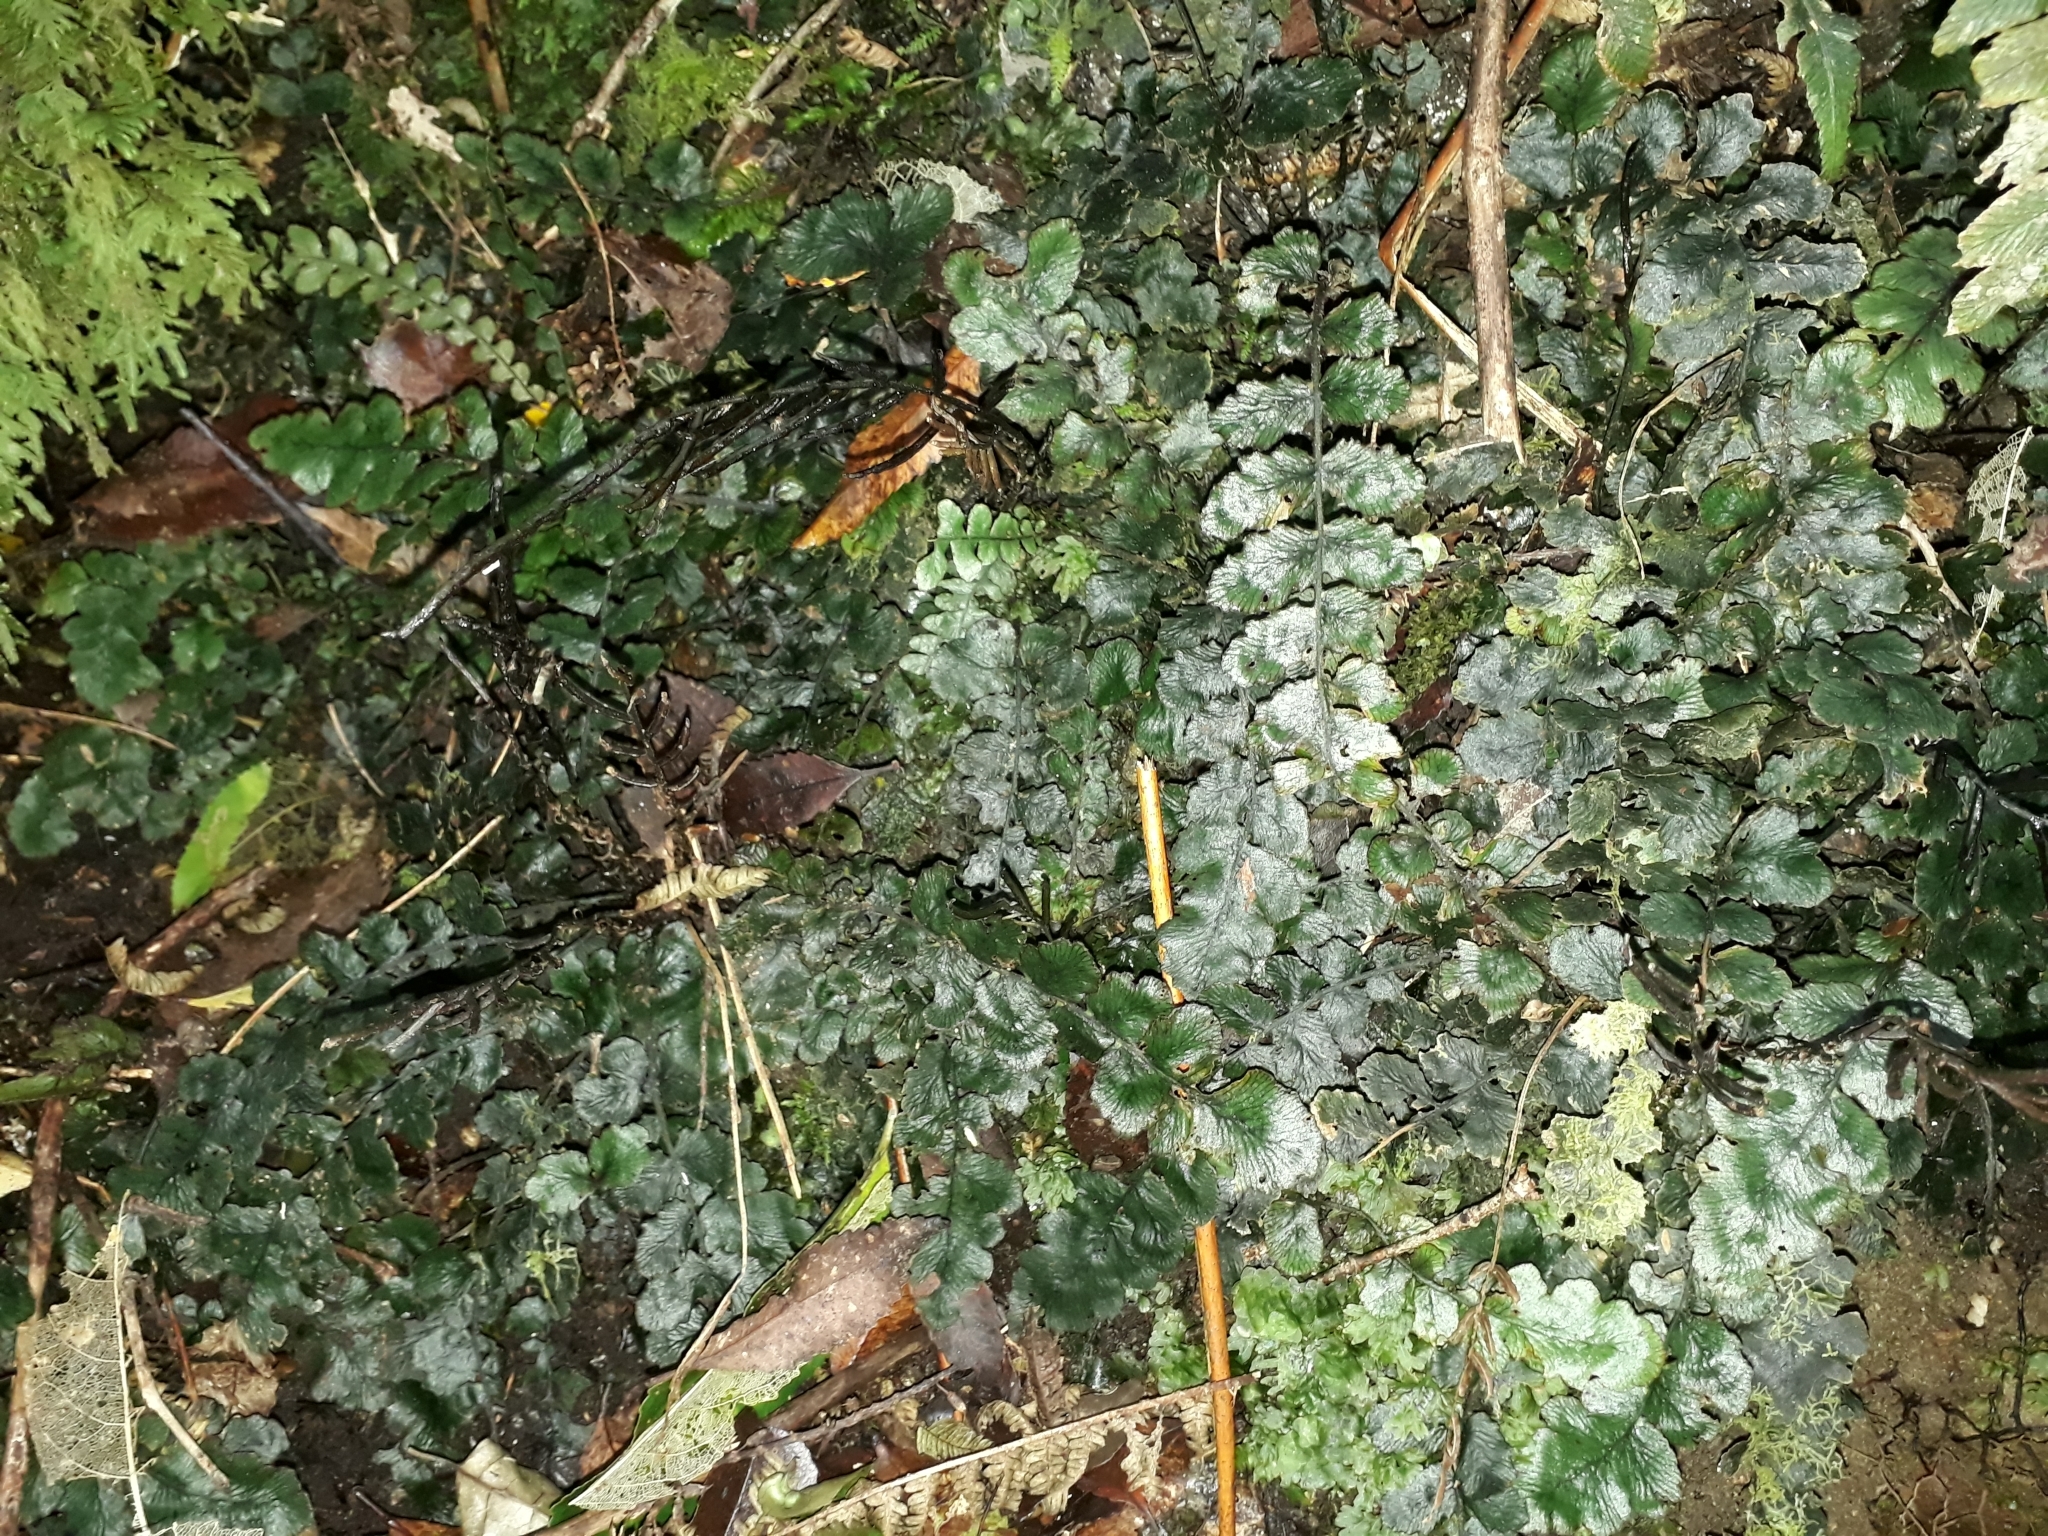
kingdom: Plantae
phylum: Tracheophyta
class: Polypodiopsida
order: Polypodiales
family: Blechnaceae
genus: Cranfillia
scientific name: Cranfillia nigra
